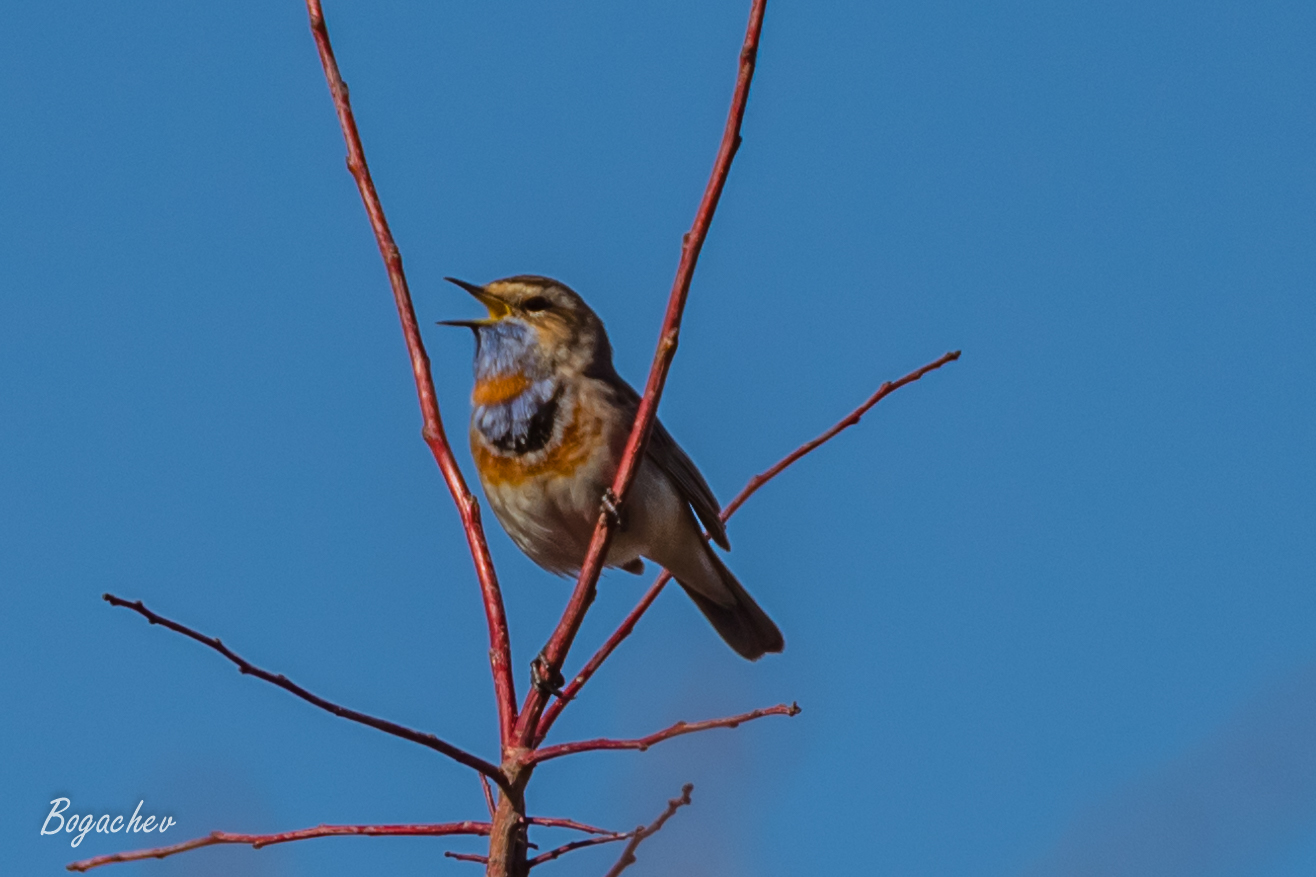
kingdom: Animalia
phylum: Chordata
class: Aves
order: Passeriformes
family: Muscicapidae
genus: Luscinia
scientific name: Luscinia svecica
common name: Bluethroat
